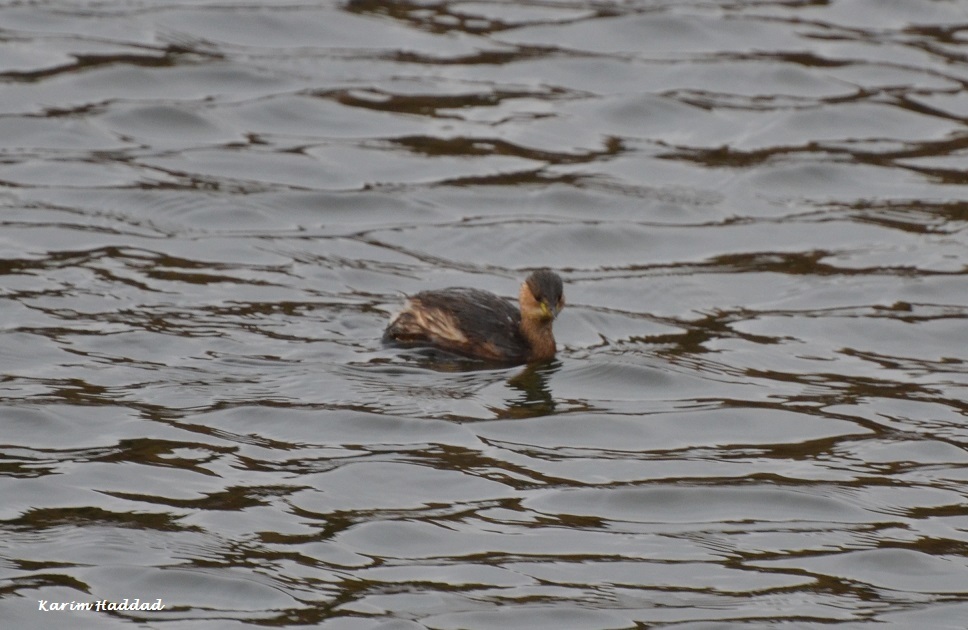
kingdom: Animalia
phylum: Chordata
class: Aves
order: Podicipediformes
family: Podicipedidae
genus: Tachybaptus
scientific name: Tachybaptus ruficollis
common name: Little grebe
